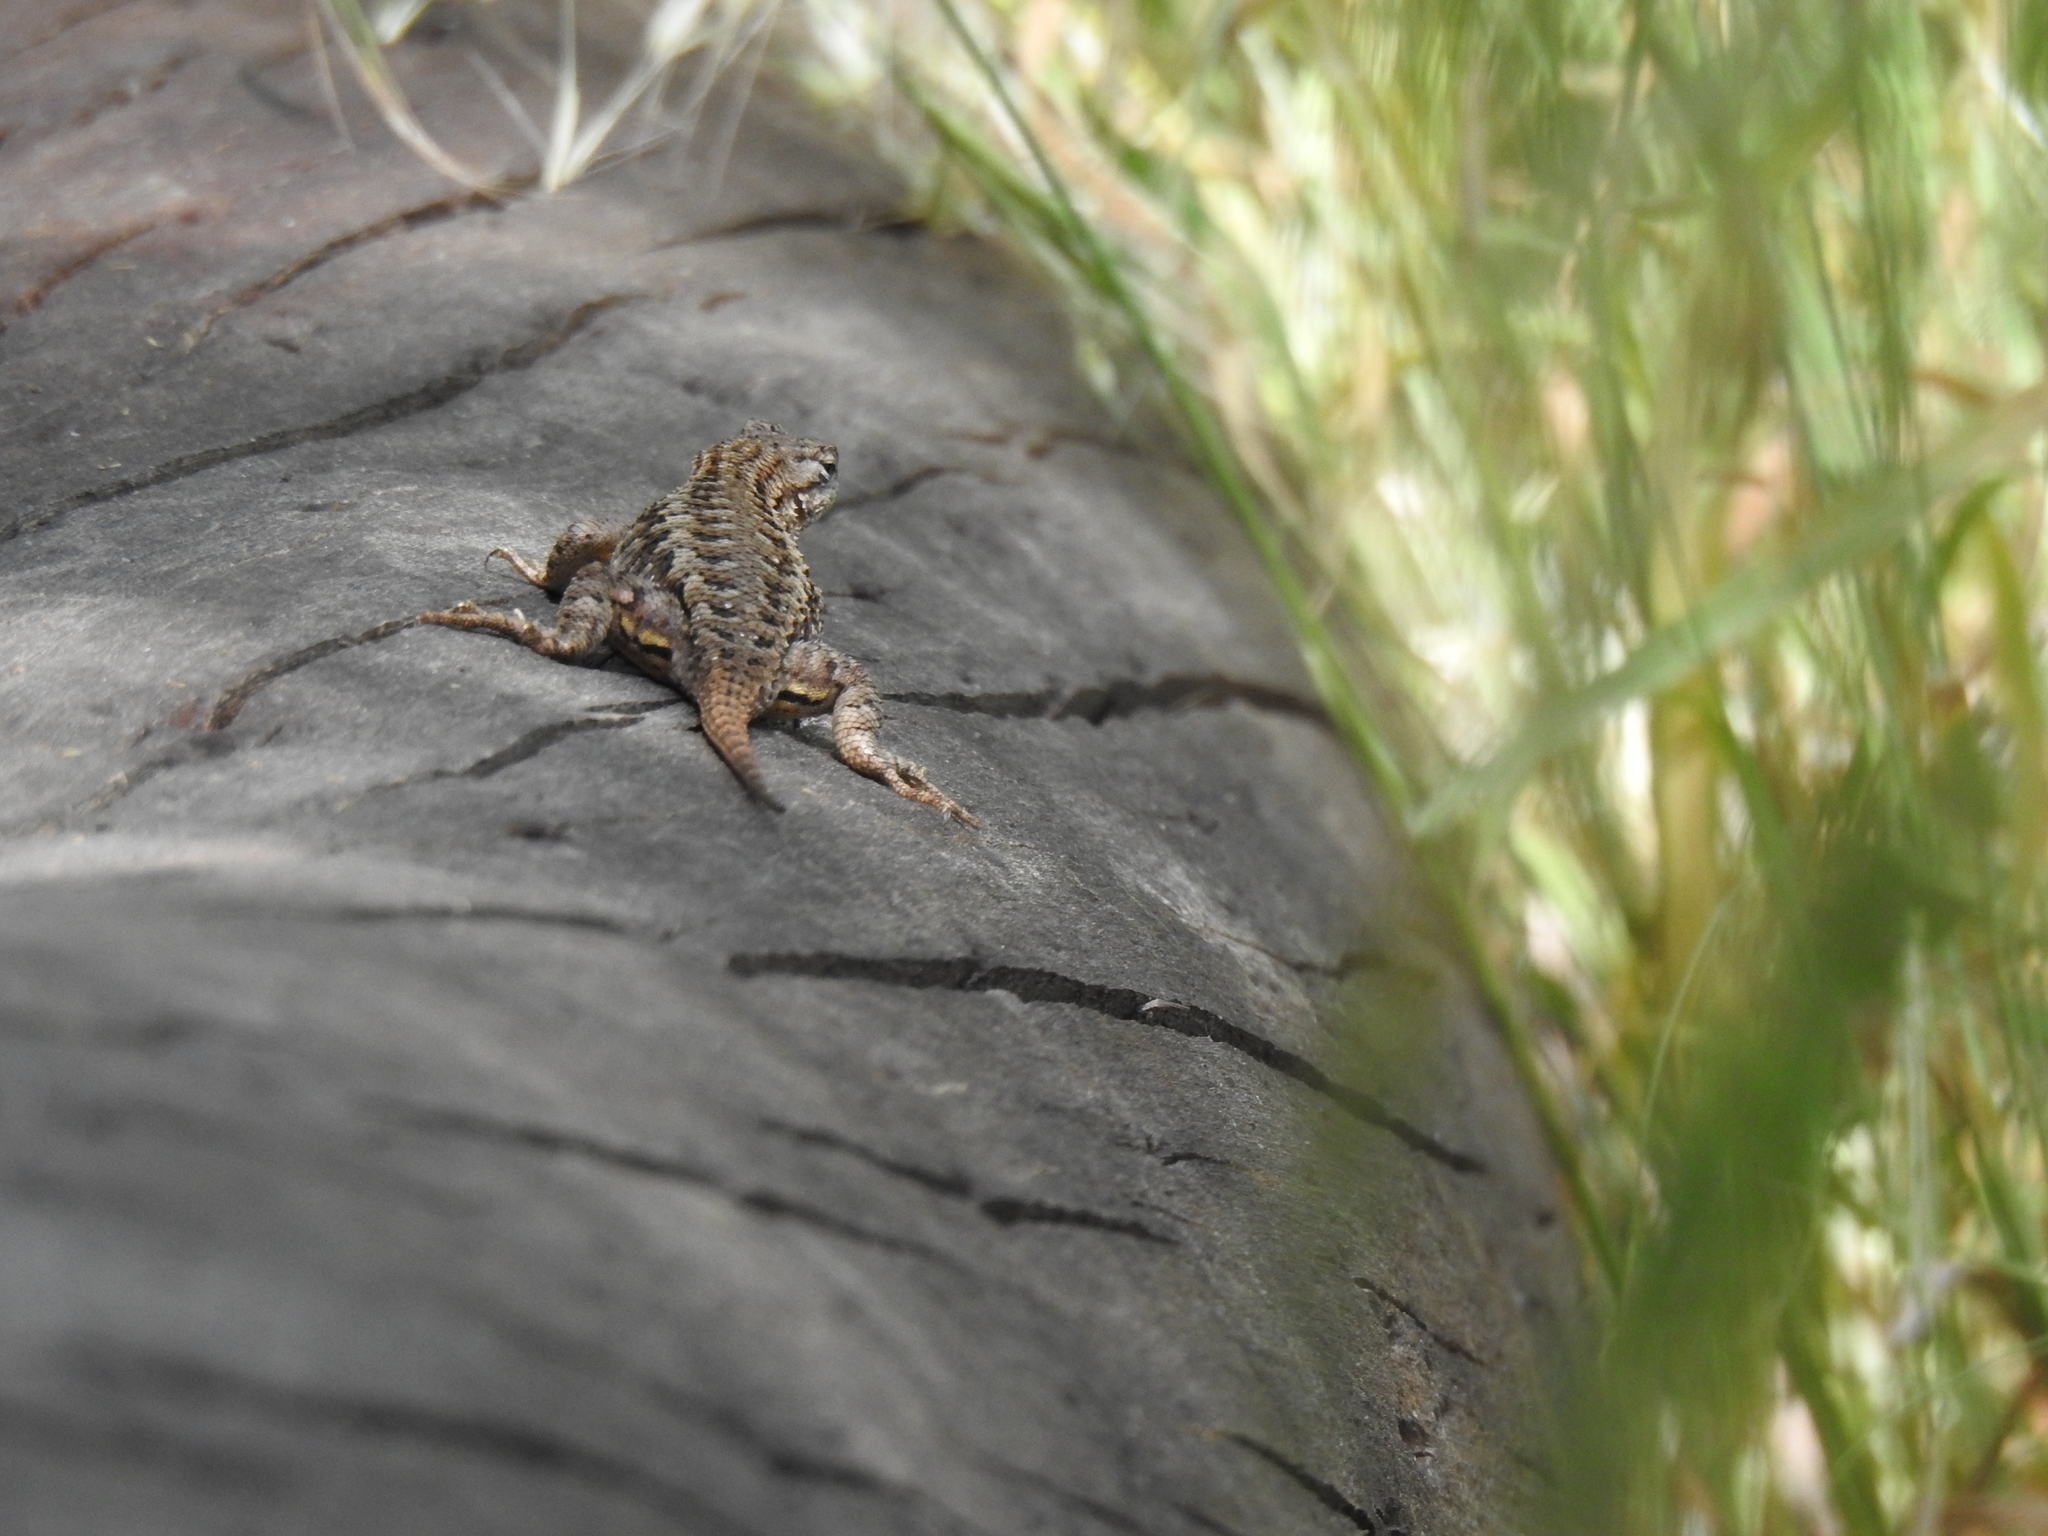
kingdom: Animalia
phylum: Chordata
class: Squamata
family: Phrynosomatidae
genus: Sceloporus
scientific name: Sceloporus occidentalis
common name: Western fence lizard
